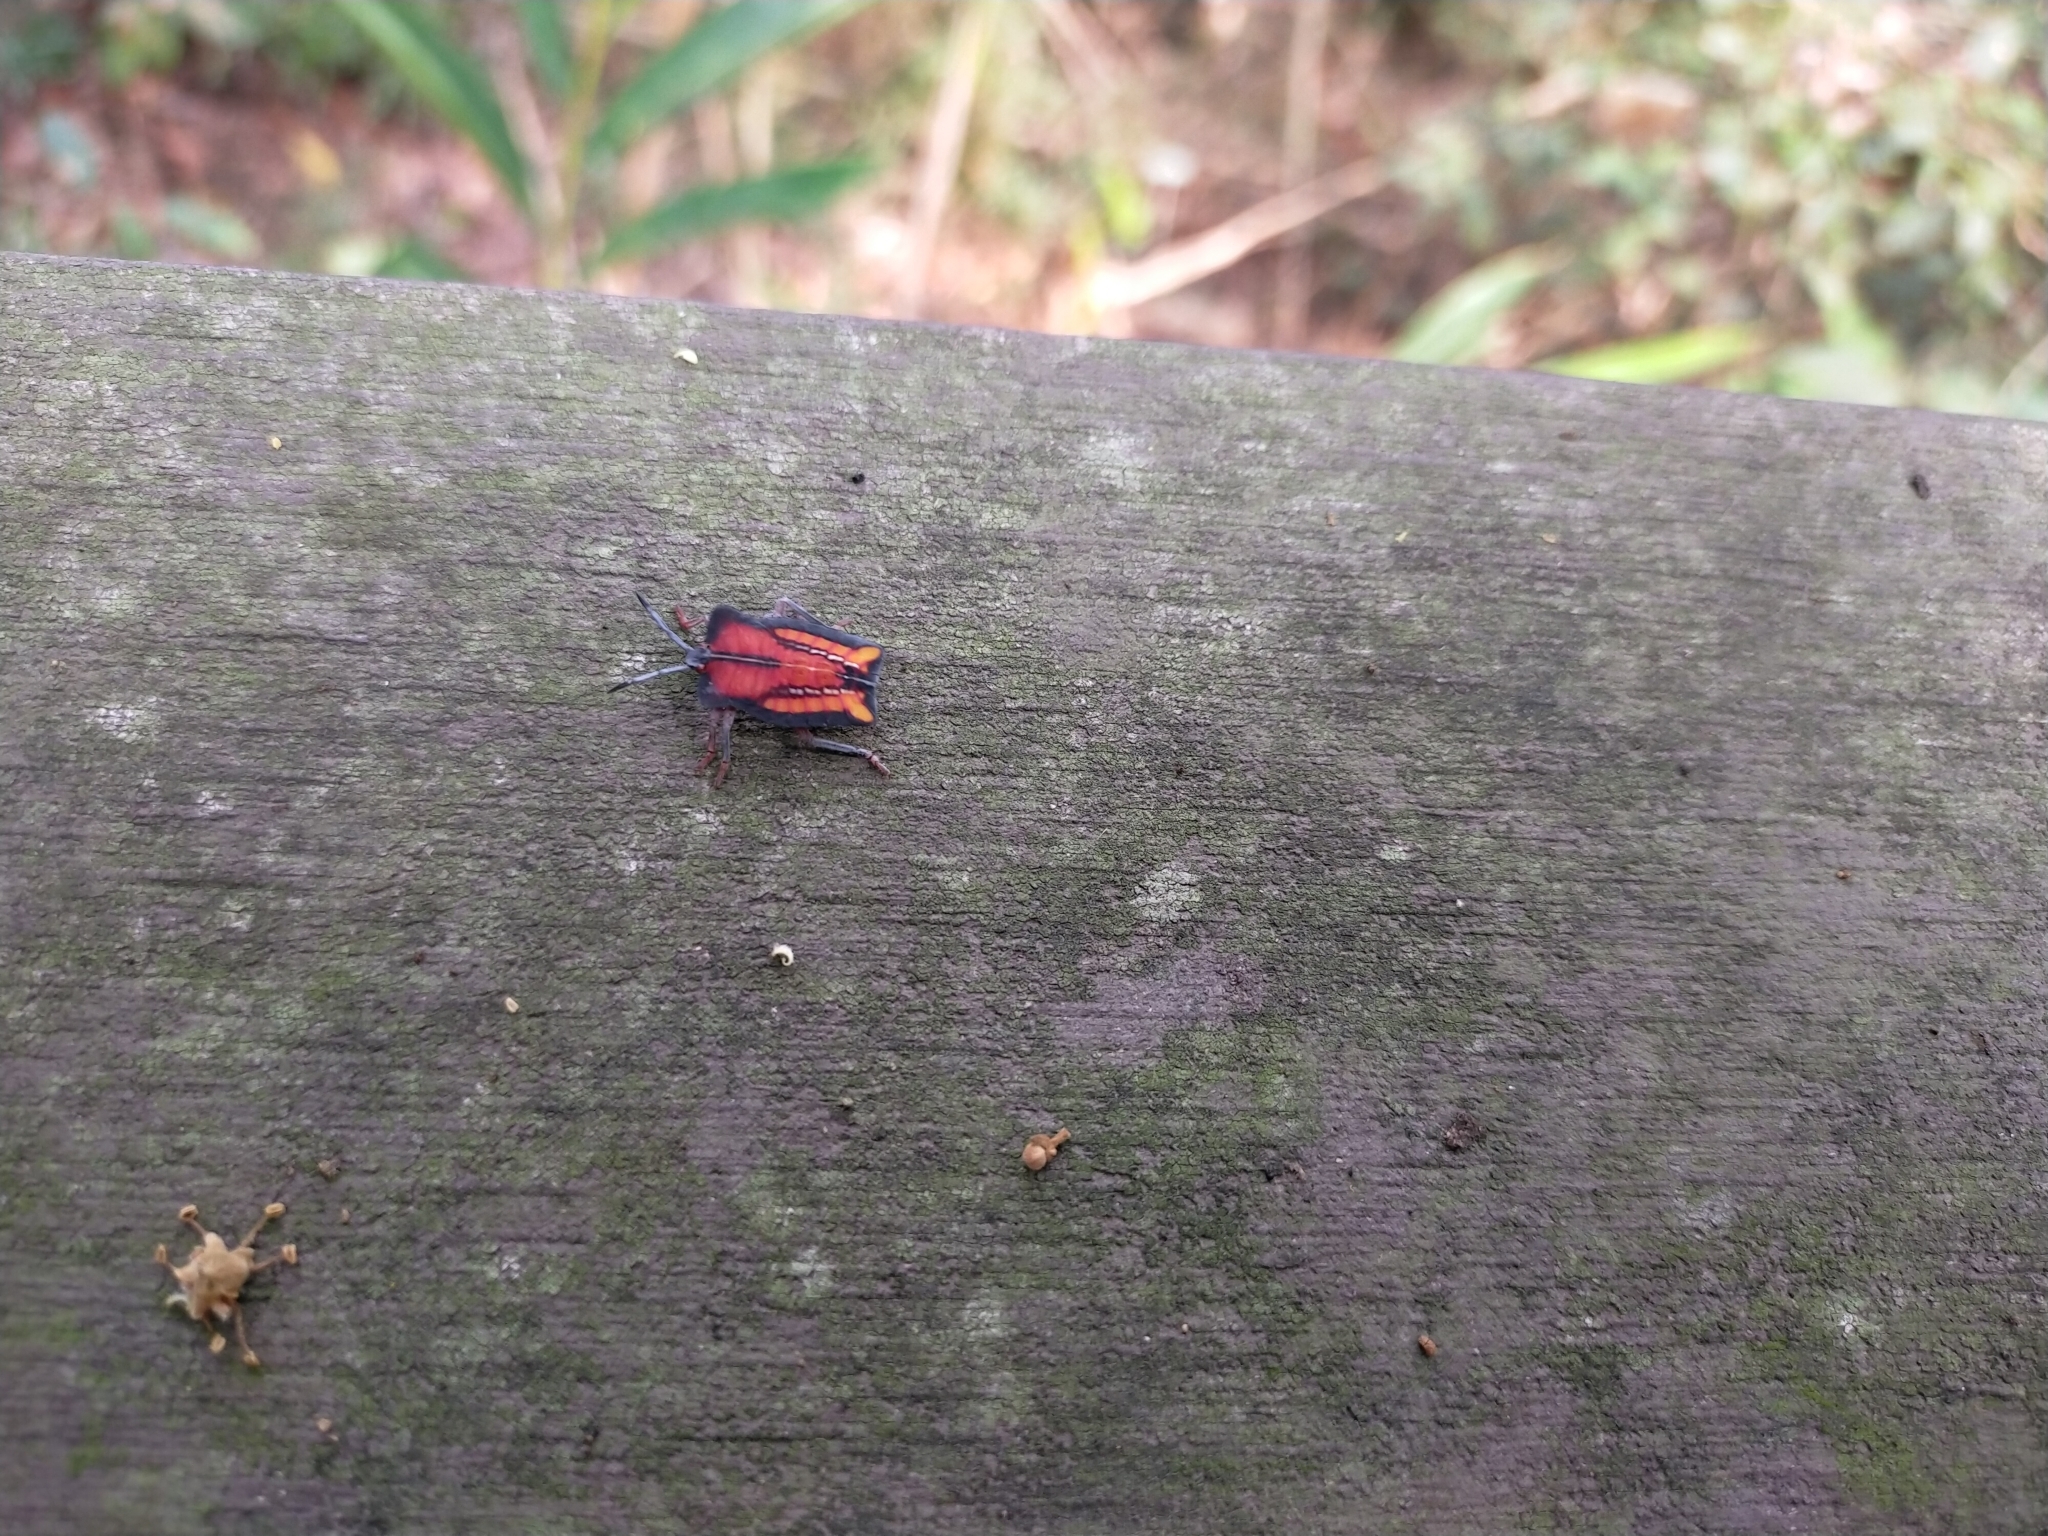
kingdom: Animalia
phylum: Arthropoda
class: Insecta
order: Hemiptera
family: Tessaratomidae
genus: Tessaratoma
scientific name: Tessaratoma papillosa
